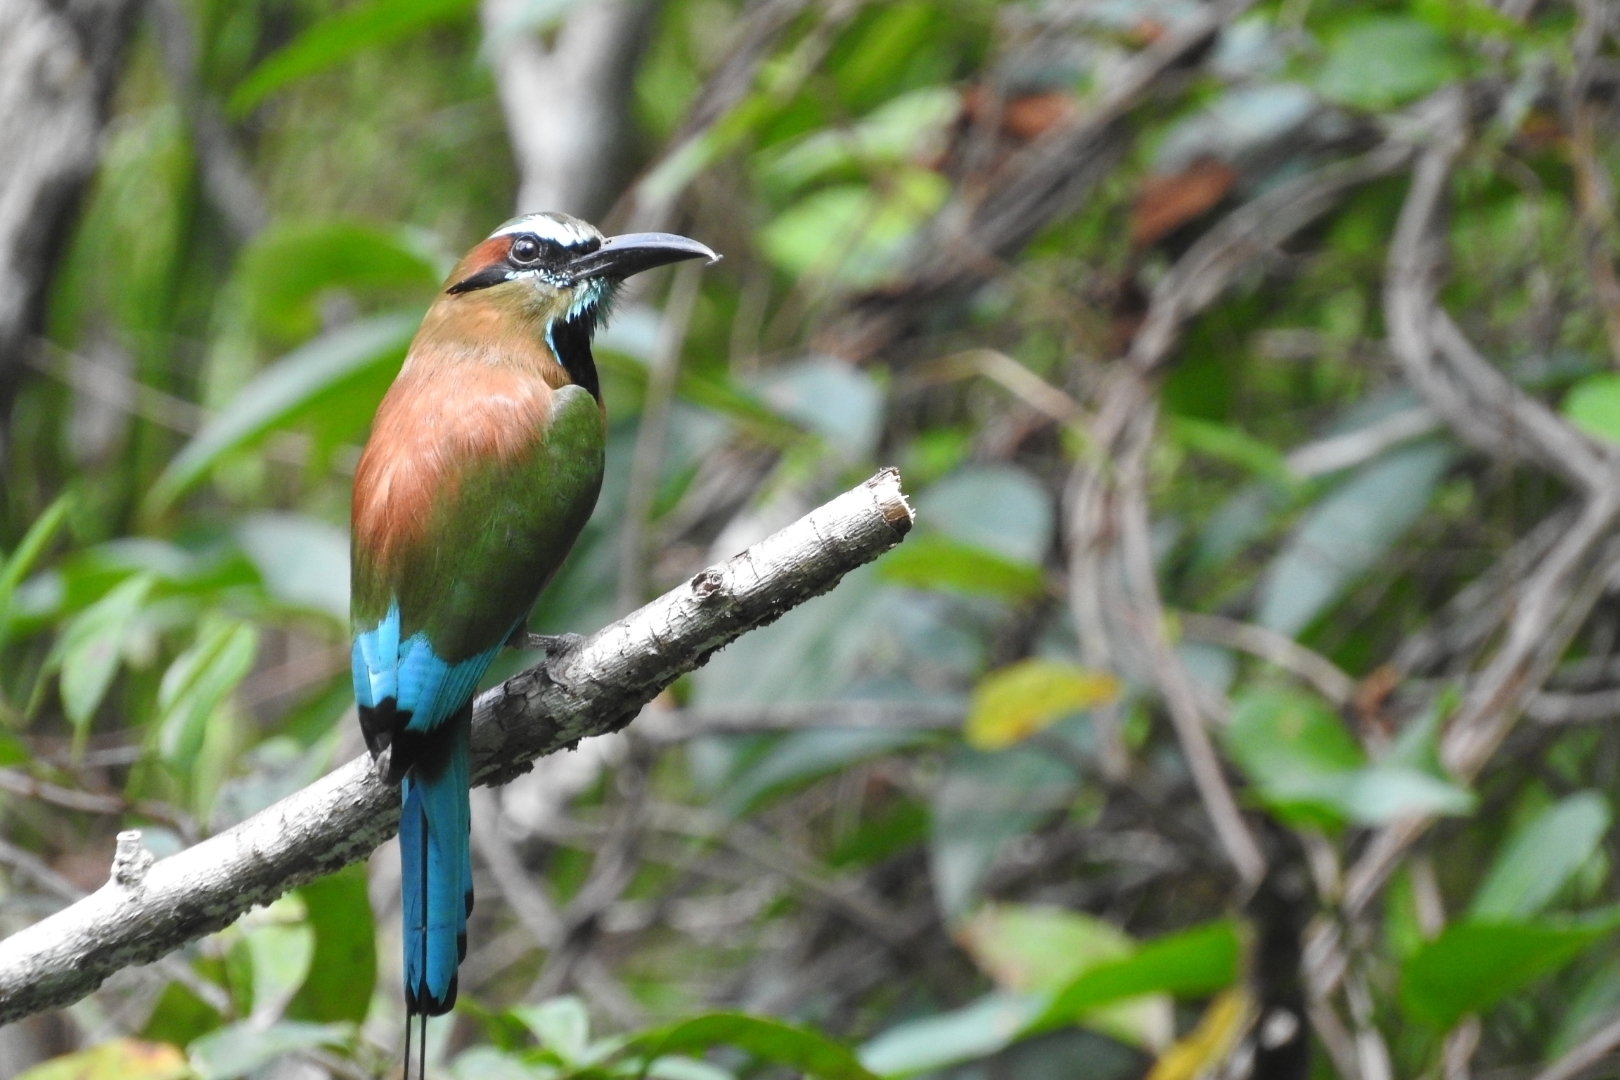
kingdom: Animalia
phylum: Chordata
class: Aves
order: Coraciiformes
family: Momotidae
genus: Eumomota
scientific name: Eumomota superciliosa
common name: Turquoise-browed motmot
